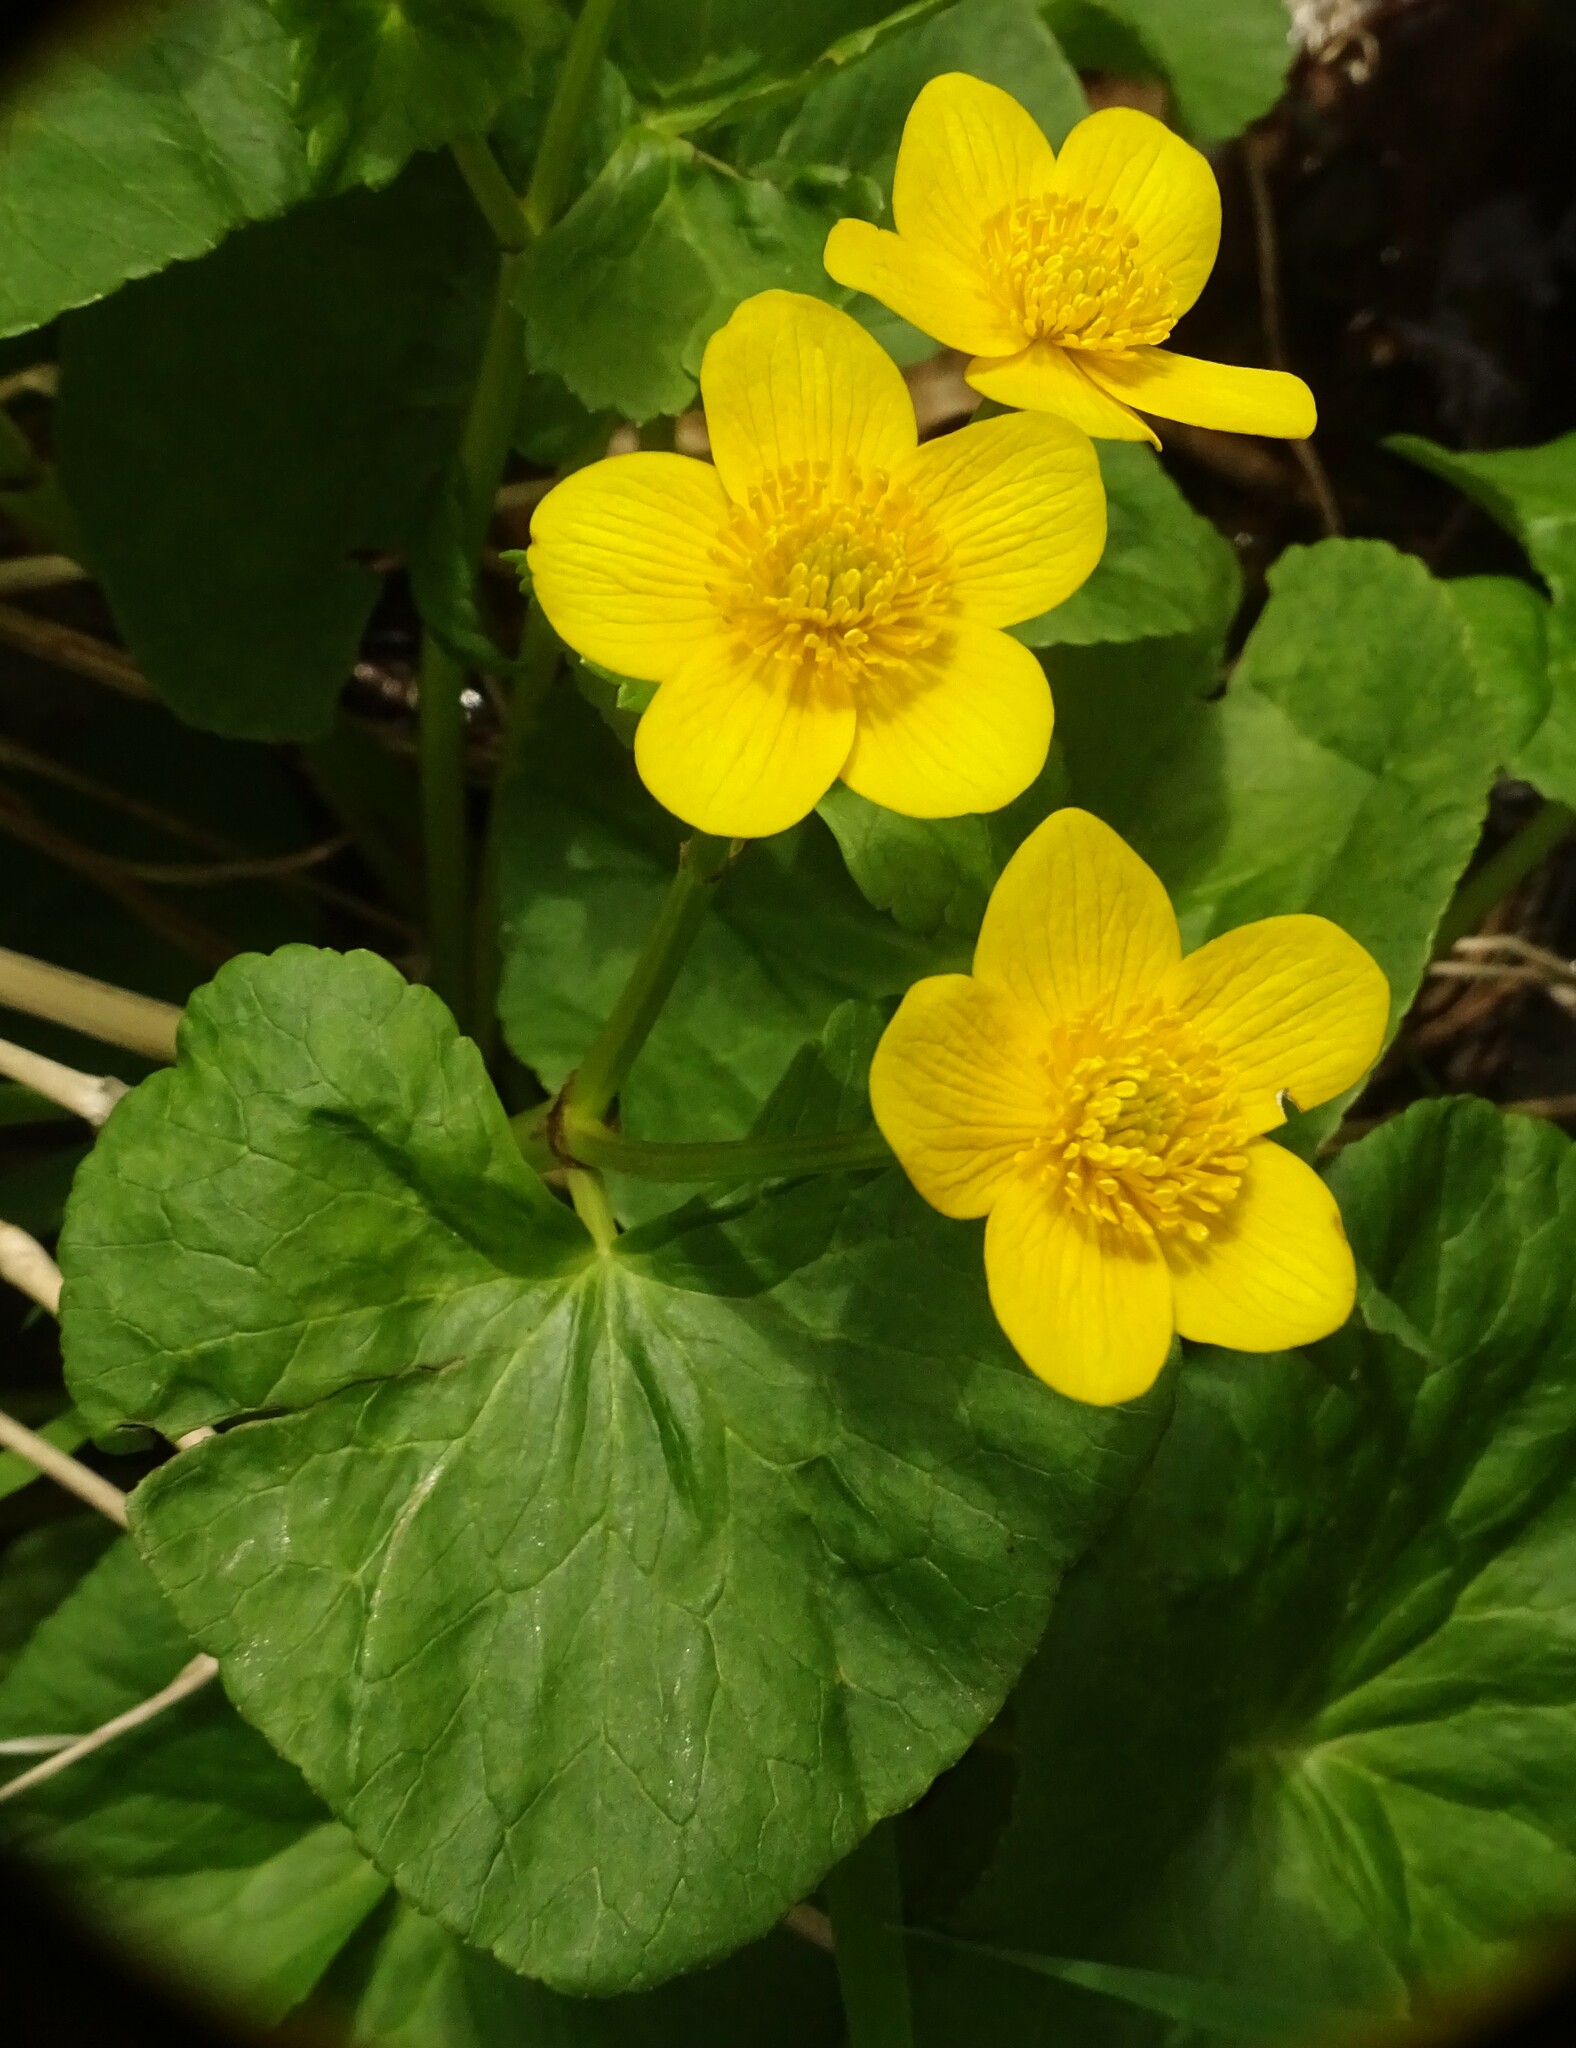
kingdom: Plantae
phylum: Tracheophyta
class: Magnoliopsida
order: Ranunculales
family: Ranunculaceae
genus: Caltha
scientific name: Caltha palustris
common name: Marsh marigold
